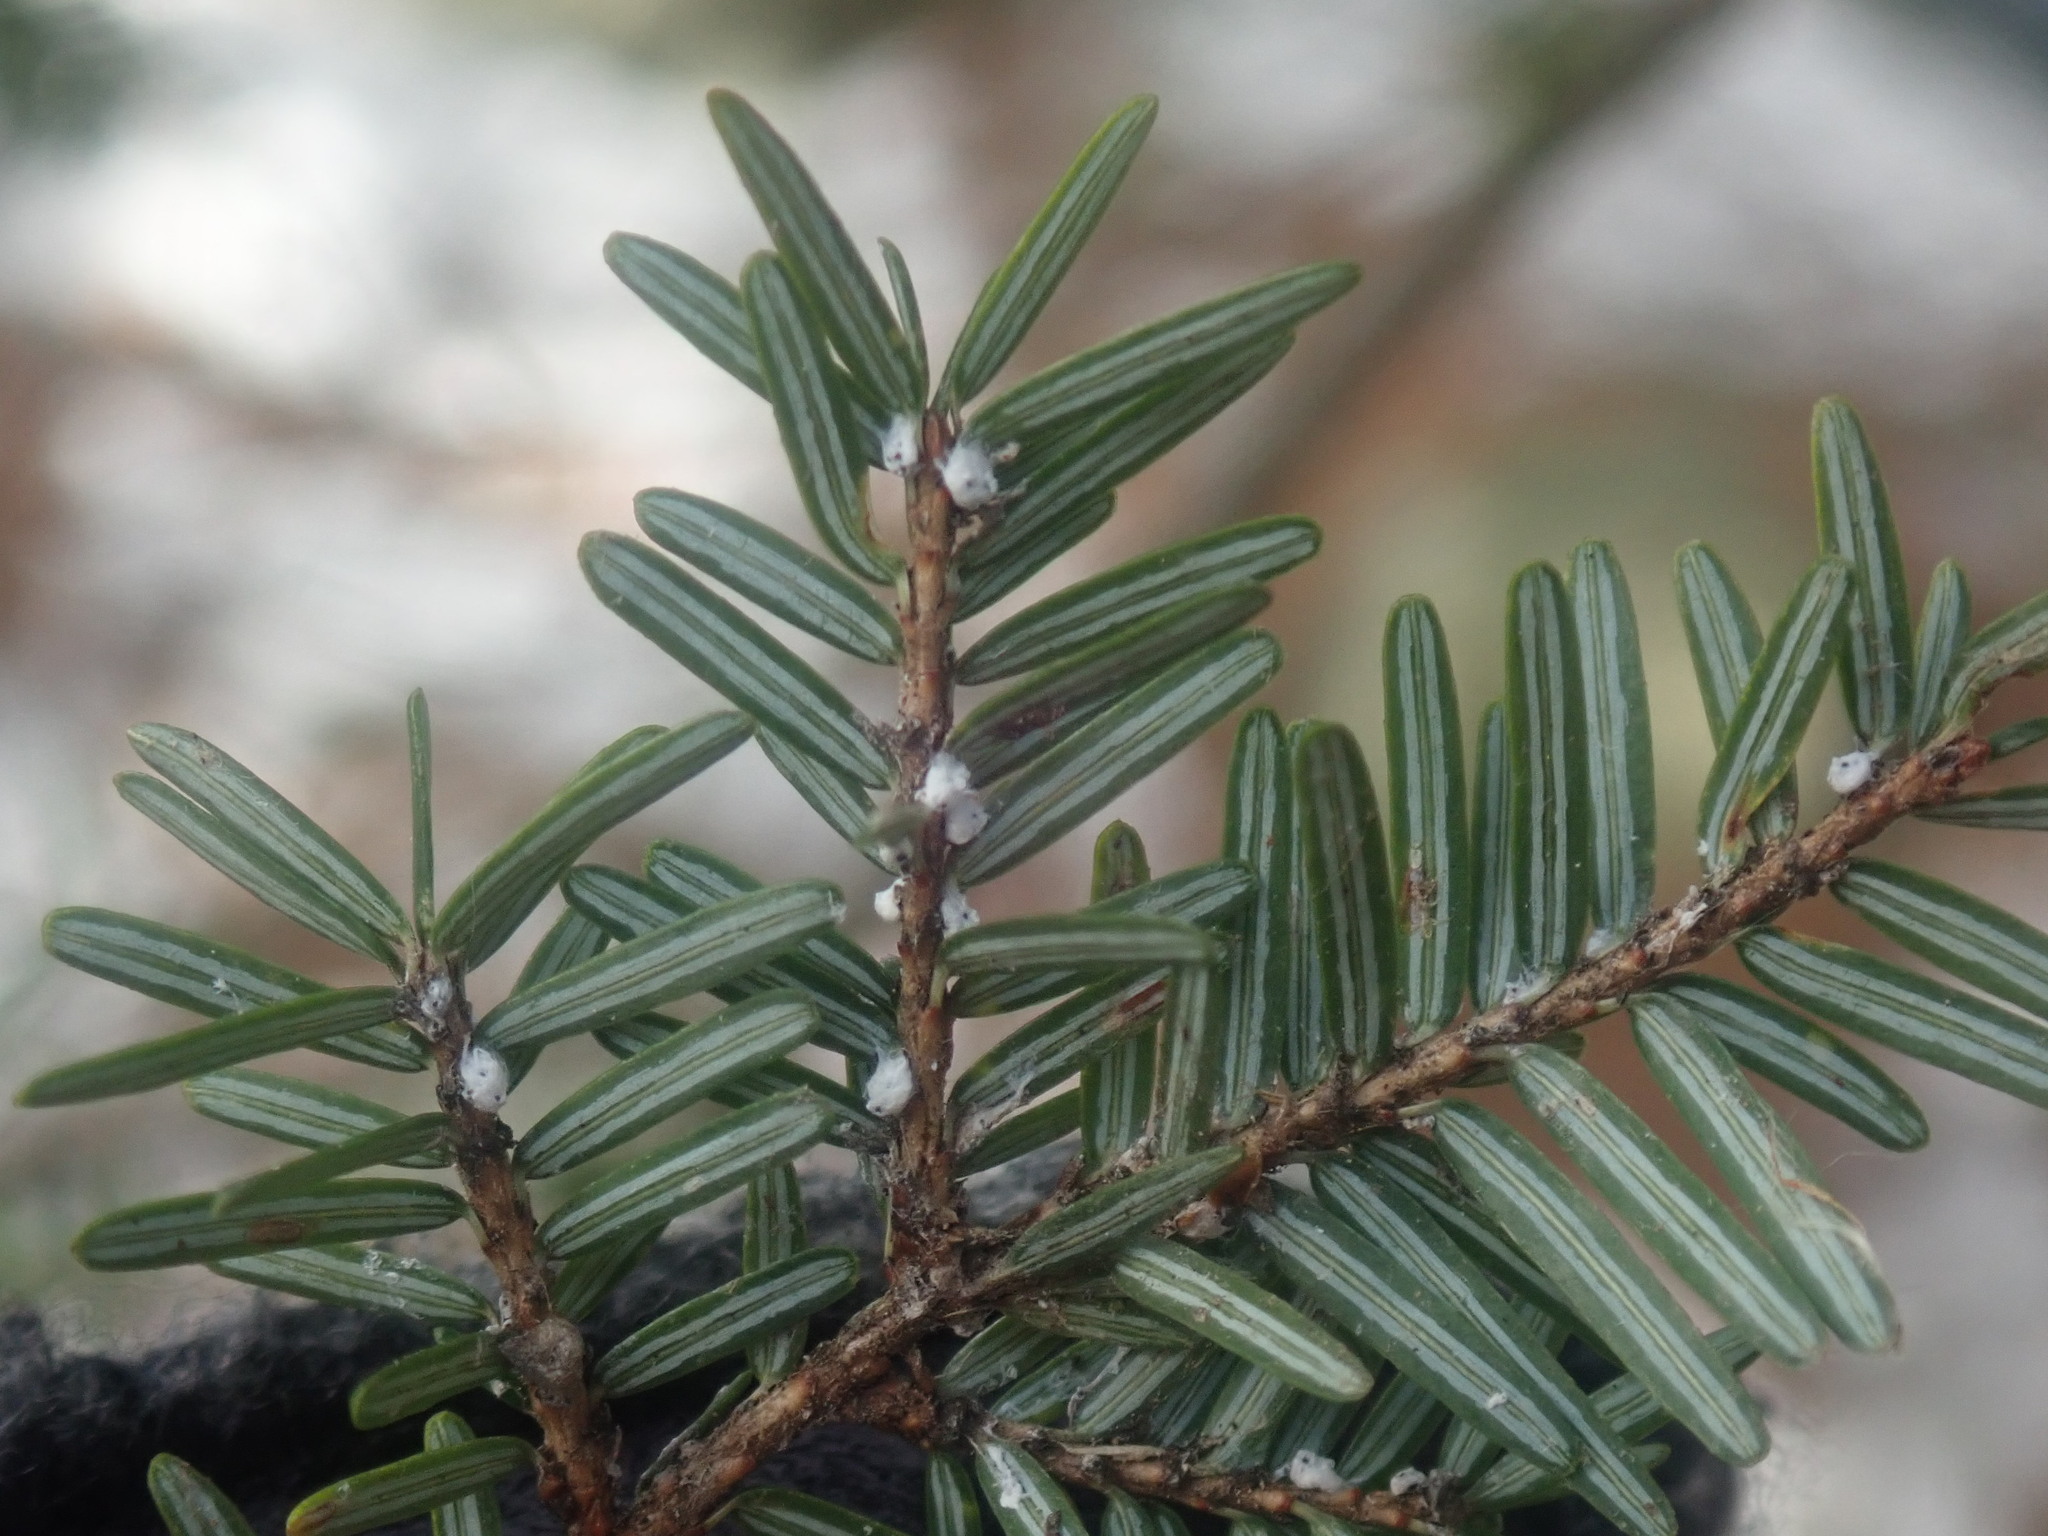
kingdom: Animalia
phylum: Arthropoda
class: Insecta
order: Hemiptera
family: Adelgidae
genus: Adelges
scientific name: Adelges tsugae
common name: Hemlock woolly adelgid
